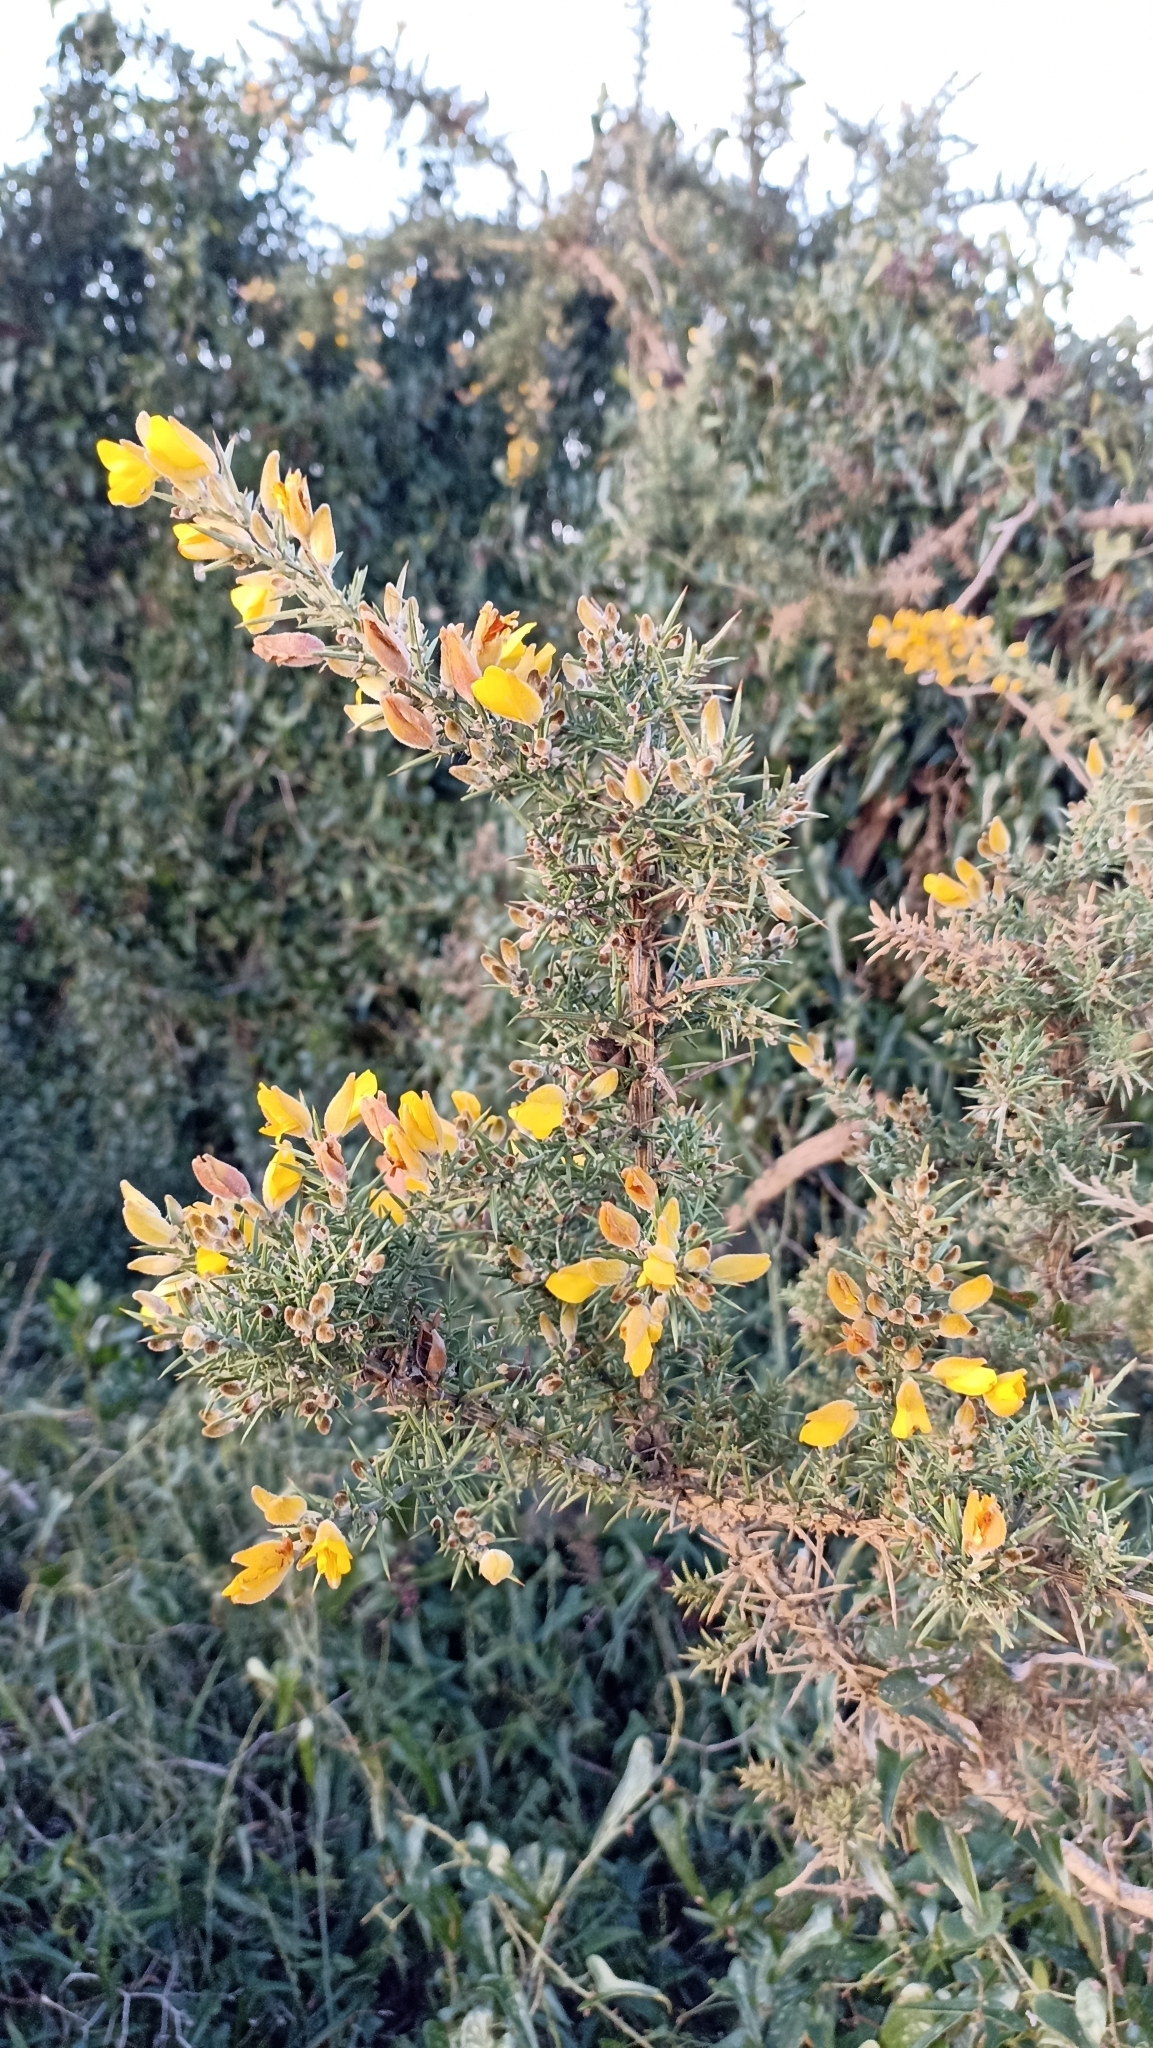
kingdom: Plantae
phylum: Tracheophyta
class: Magnoliopsida
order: Fabales
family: Fabaceae
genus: Ulex
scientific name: Ulex europaeus
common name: Common gorse
